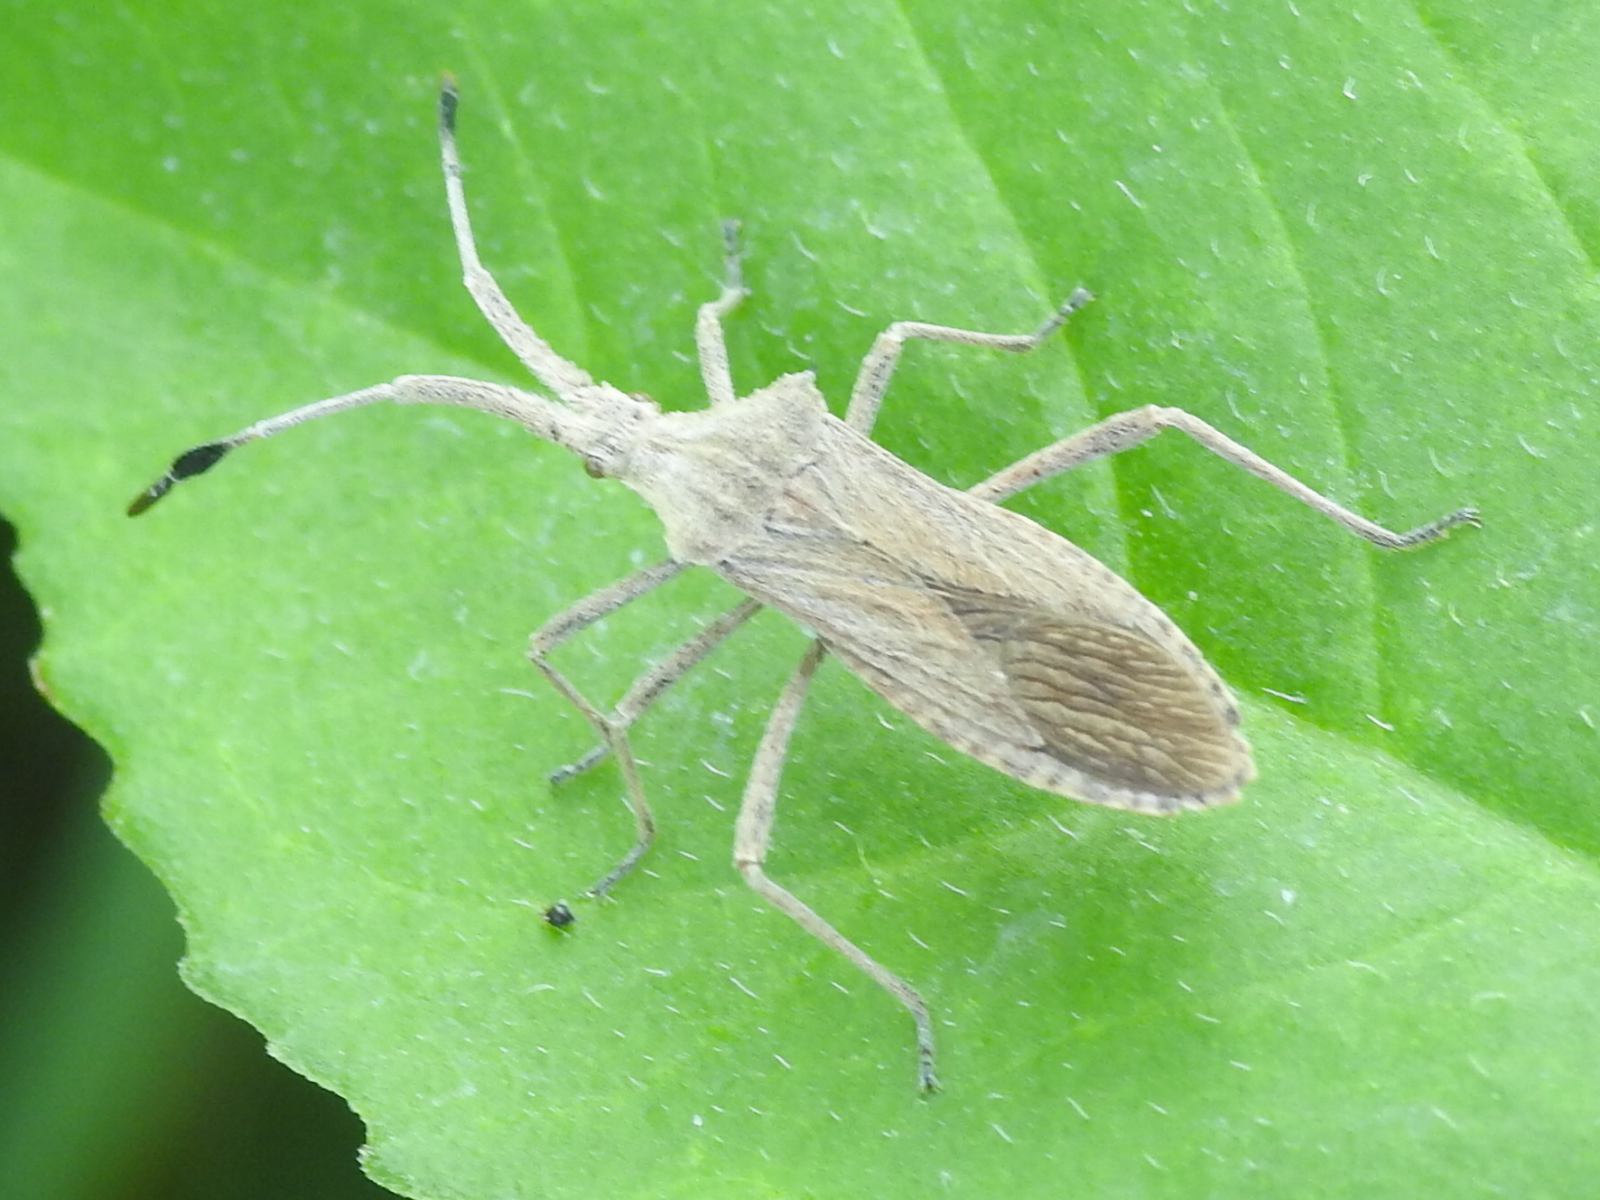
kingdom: Animalia
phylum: Arthropoda
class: Insecta
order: Hemiptera
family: Coreidae
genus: Chariesterus
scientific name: Chariesterus antennator
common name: Flat horned coreid
